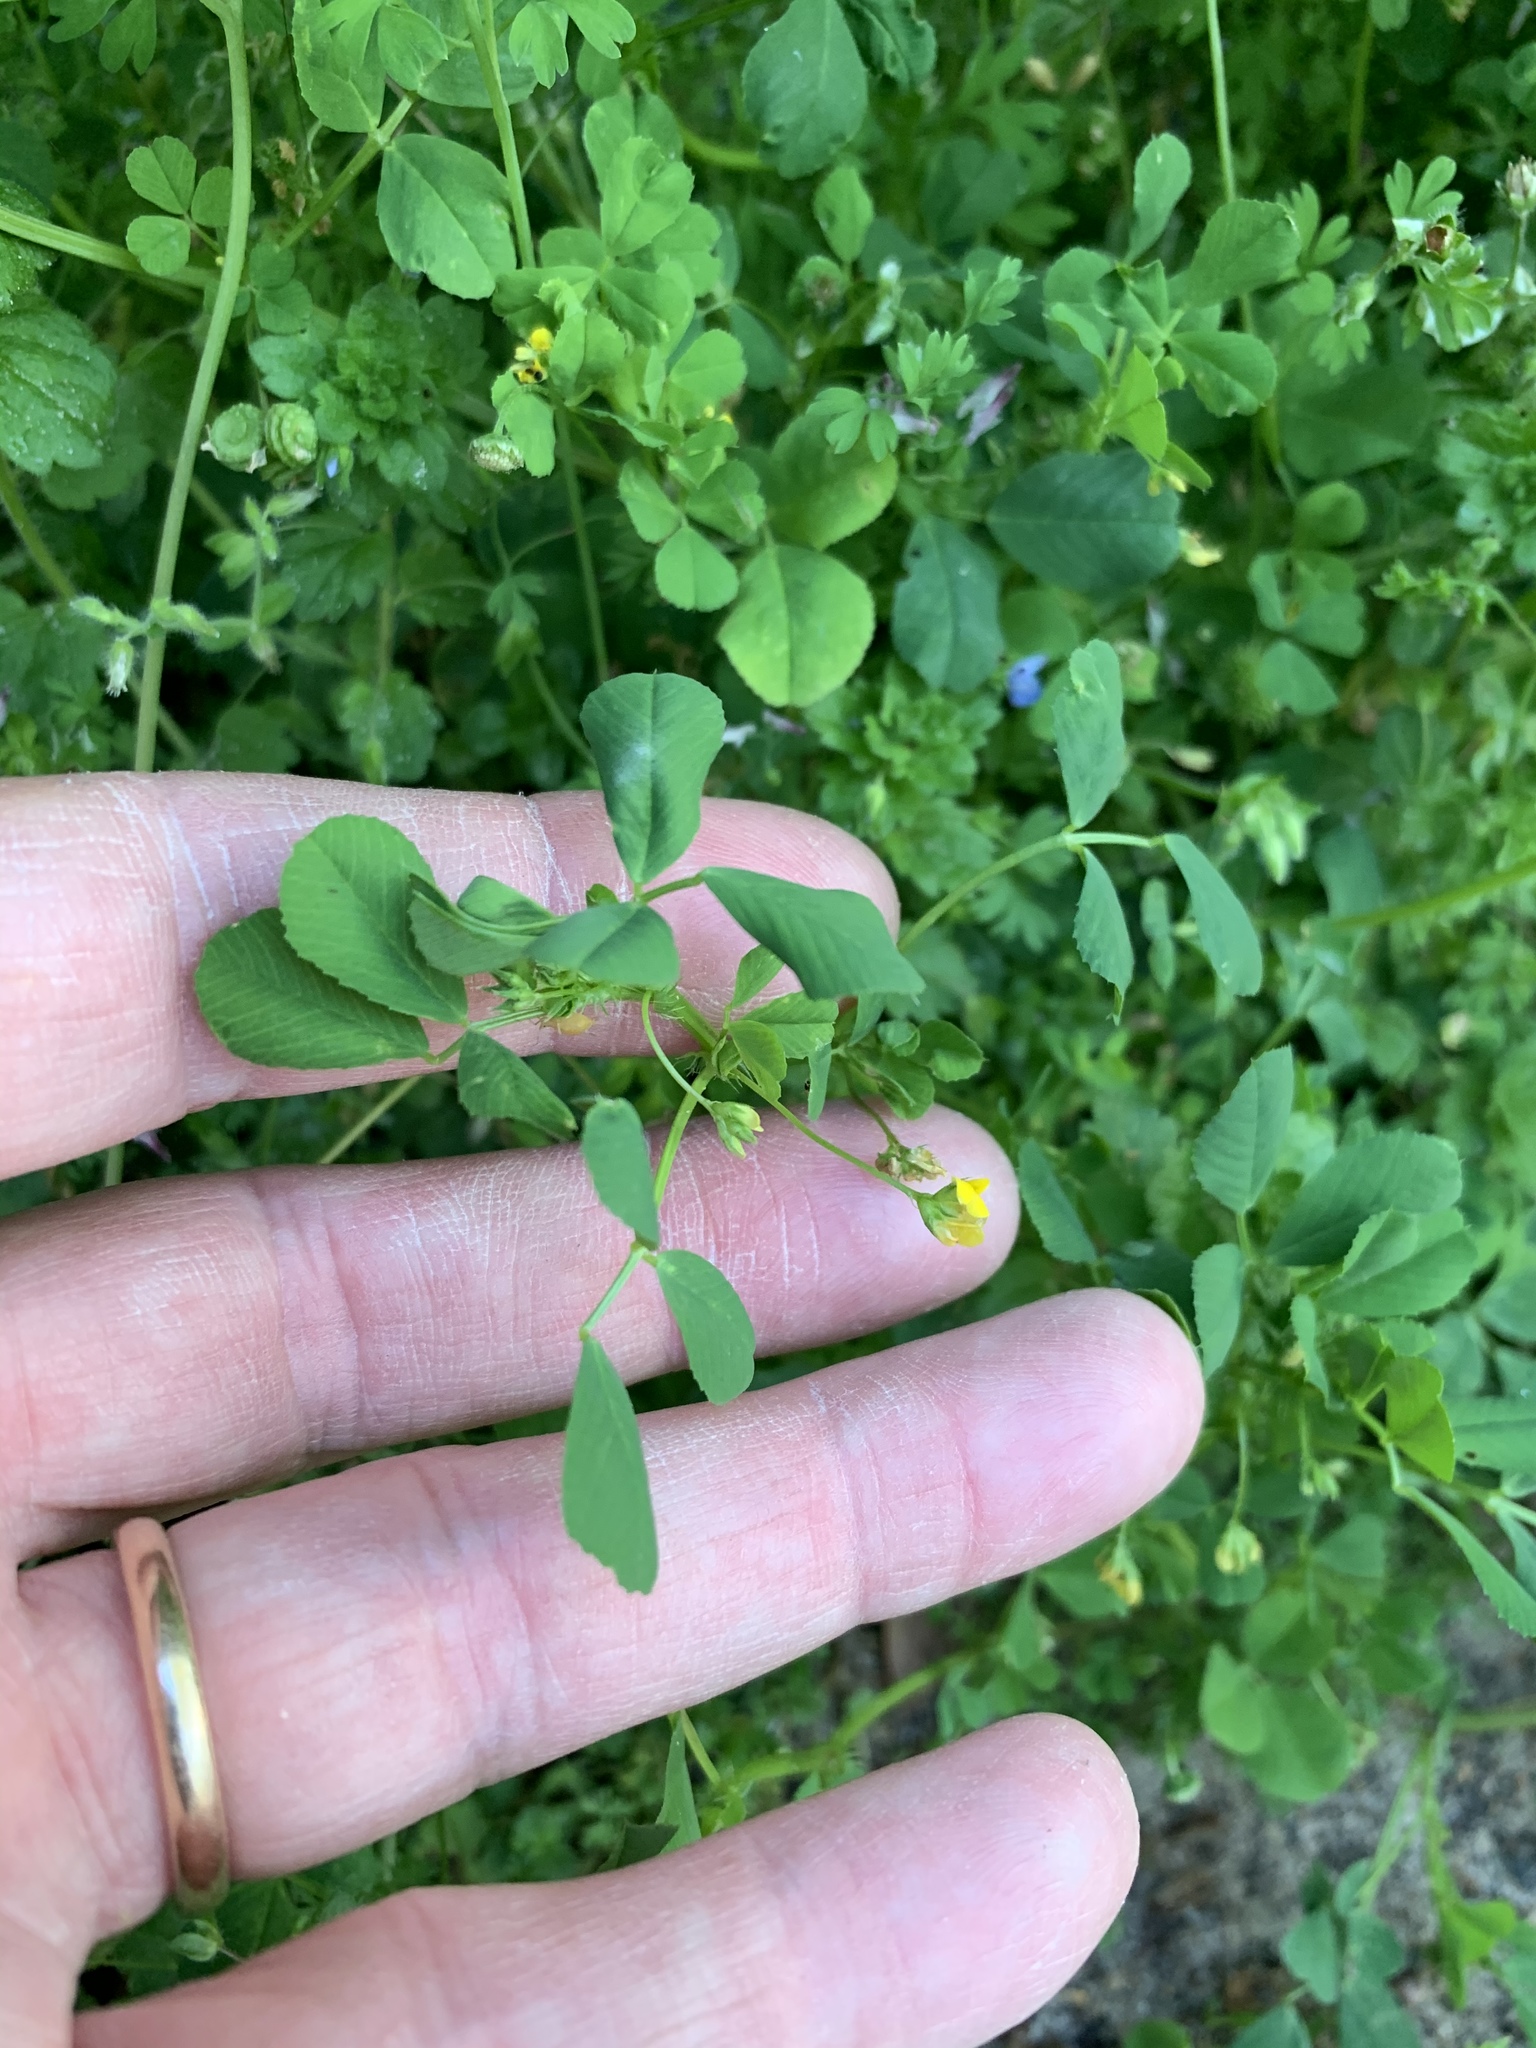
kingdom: Plantae
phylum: Tracheophyta
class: Magnoliopsida
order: Fabales
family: Fabaceae
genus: Medicago
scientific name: Medicago polymorpha
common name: Burclover
